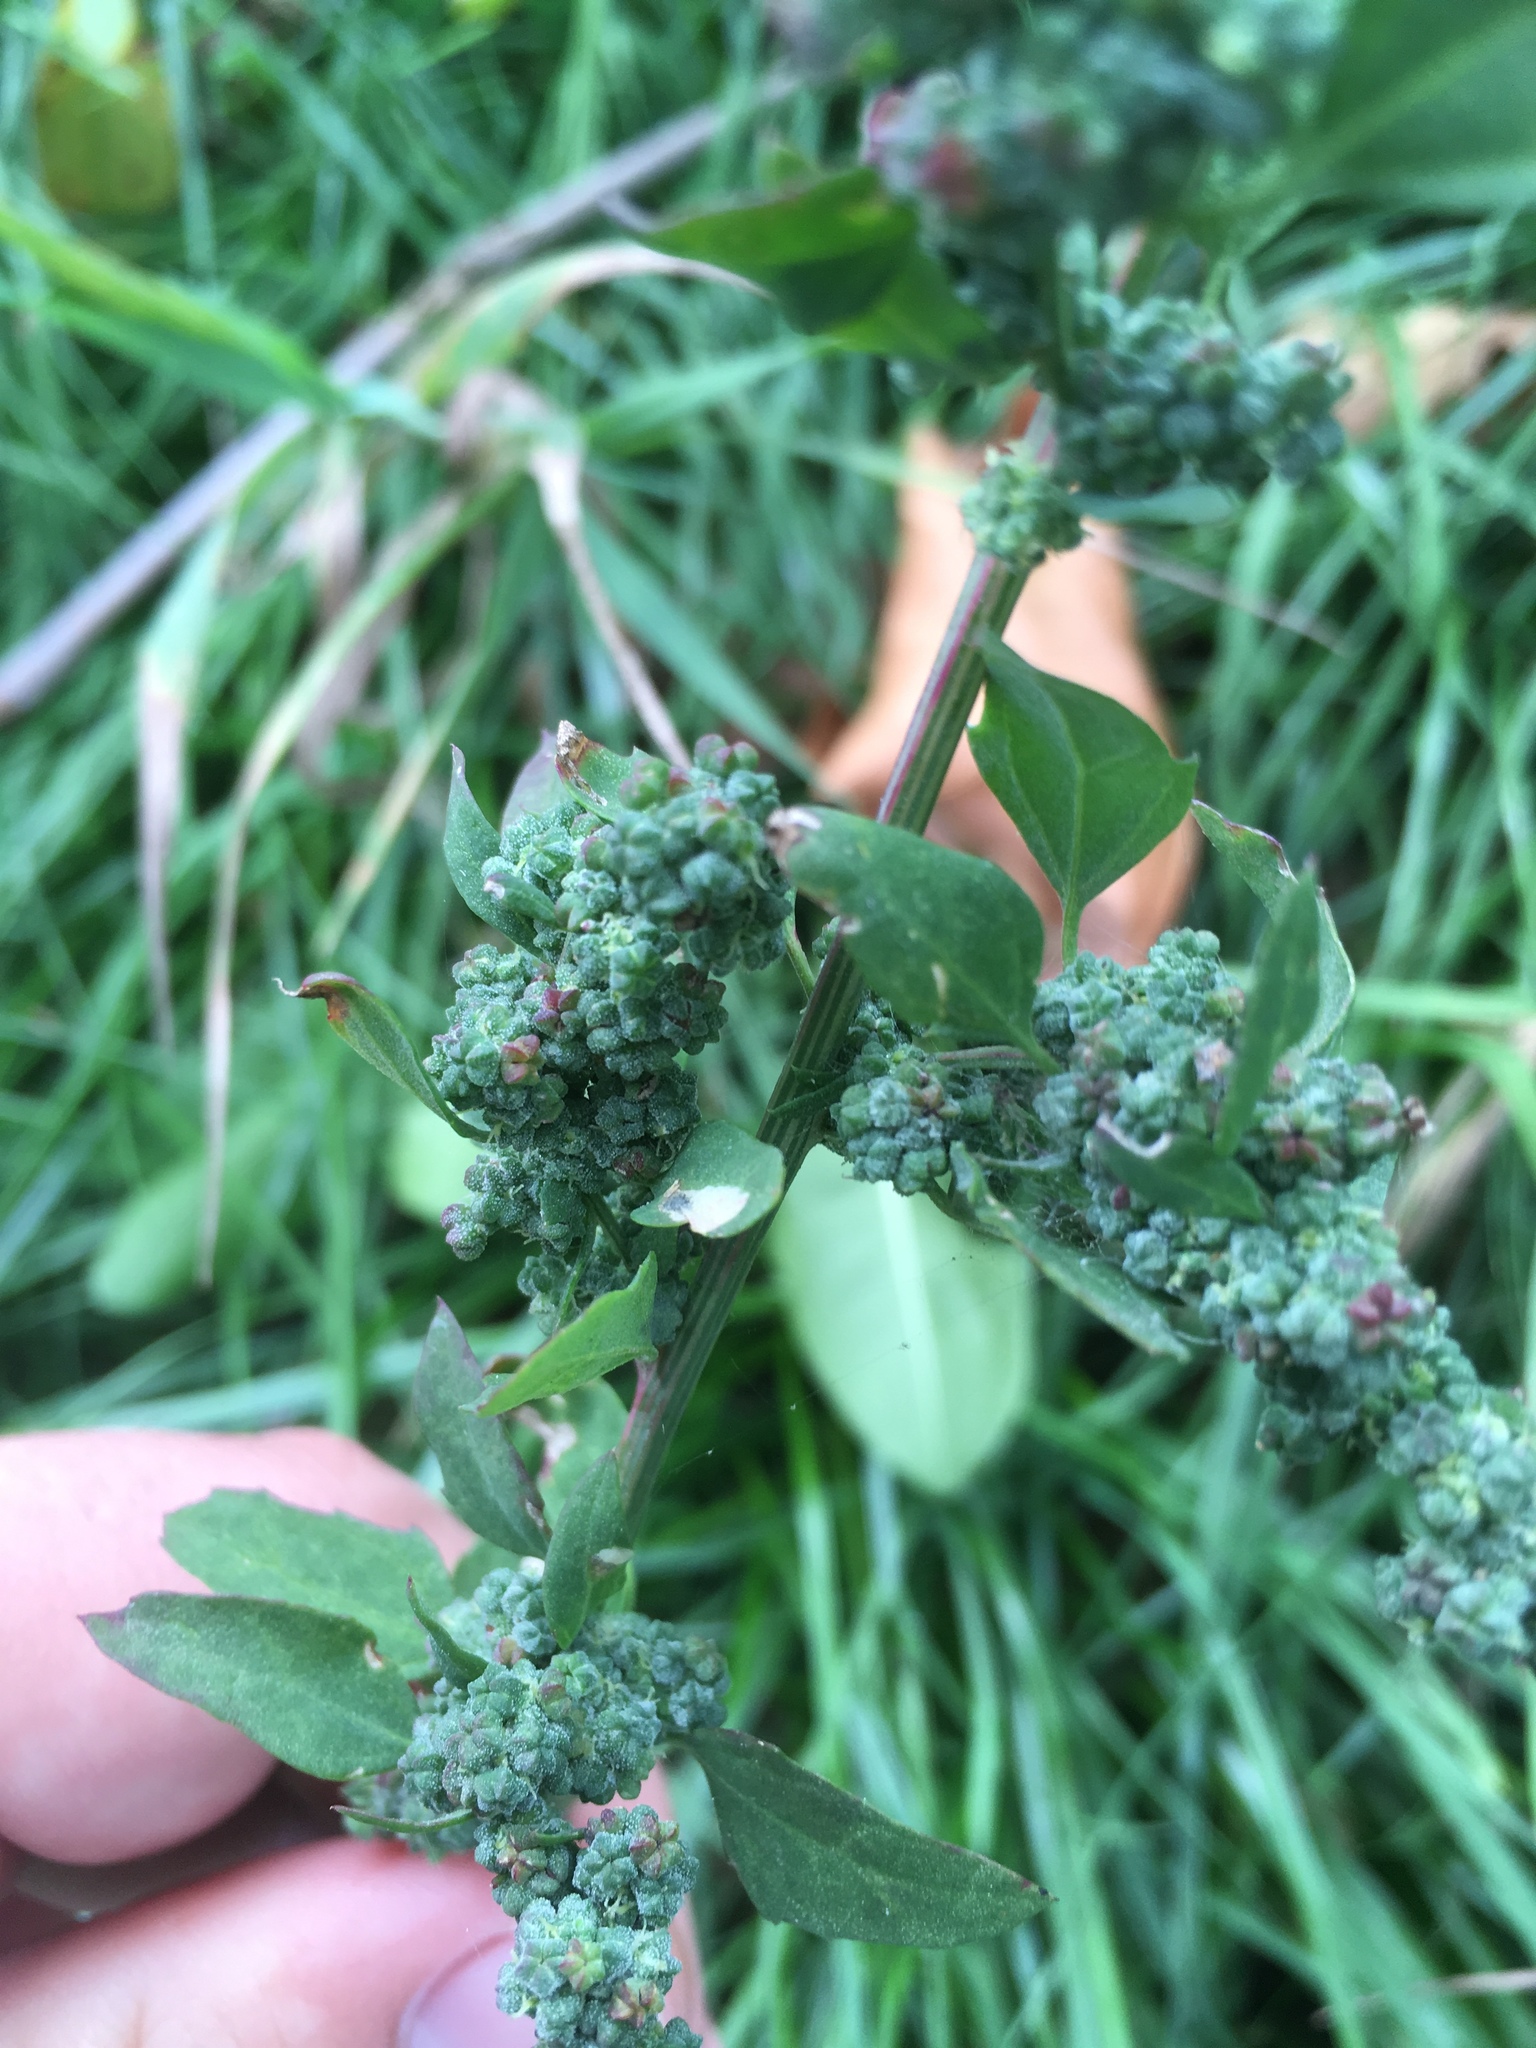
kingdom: Plantae
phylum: Tracheophyta
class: Magnoliopsida
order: Caryophyllales
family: Amaranthaceae
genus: Chenopodium
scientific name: Chenopodium album
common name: Fat-hen
